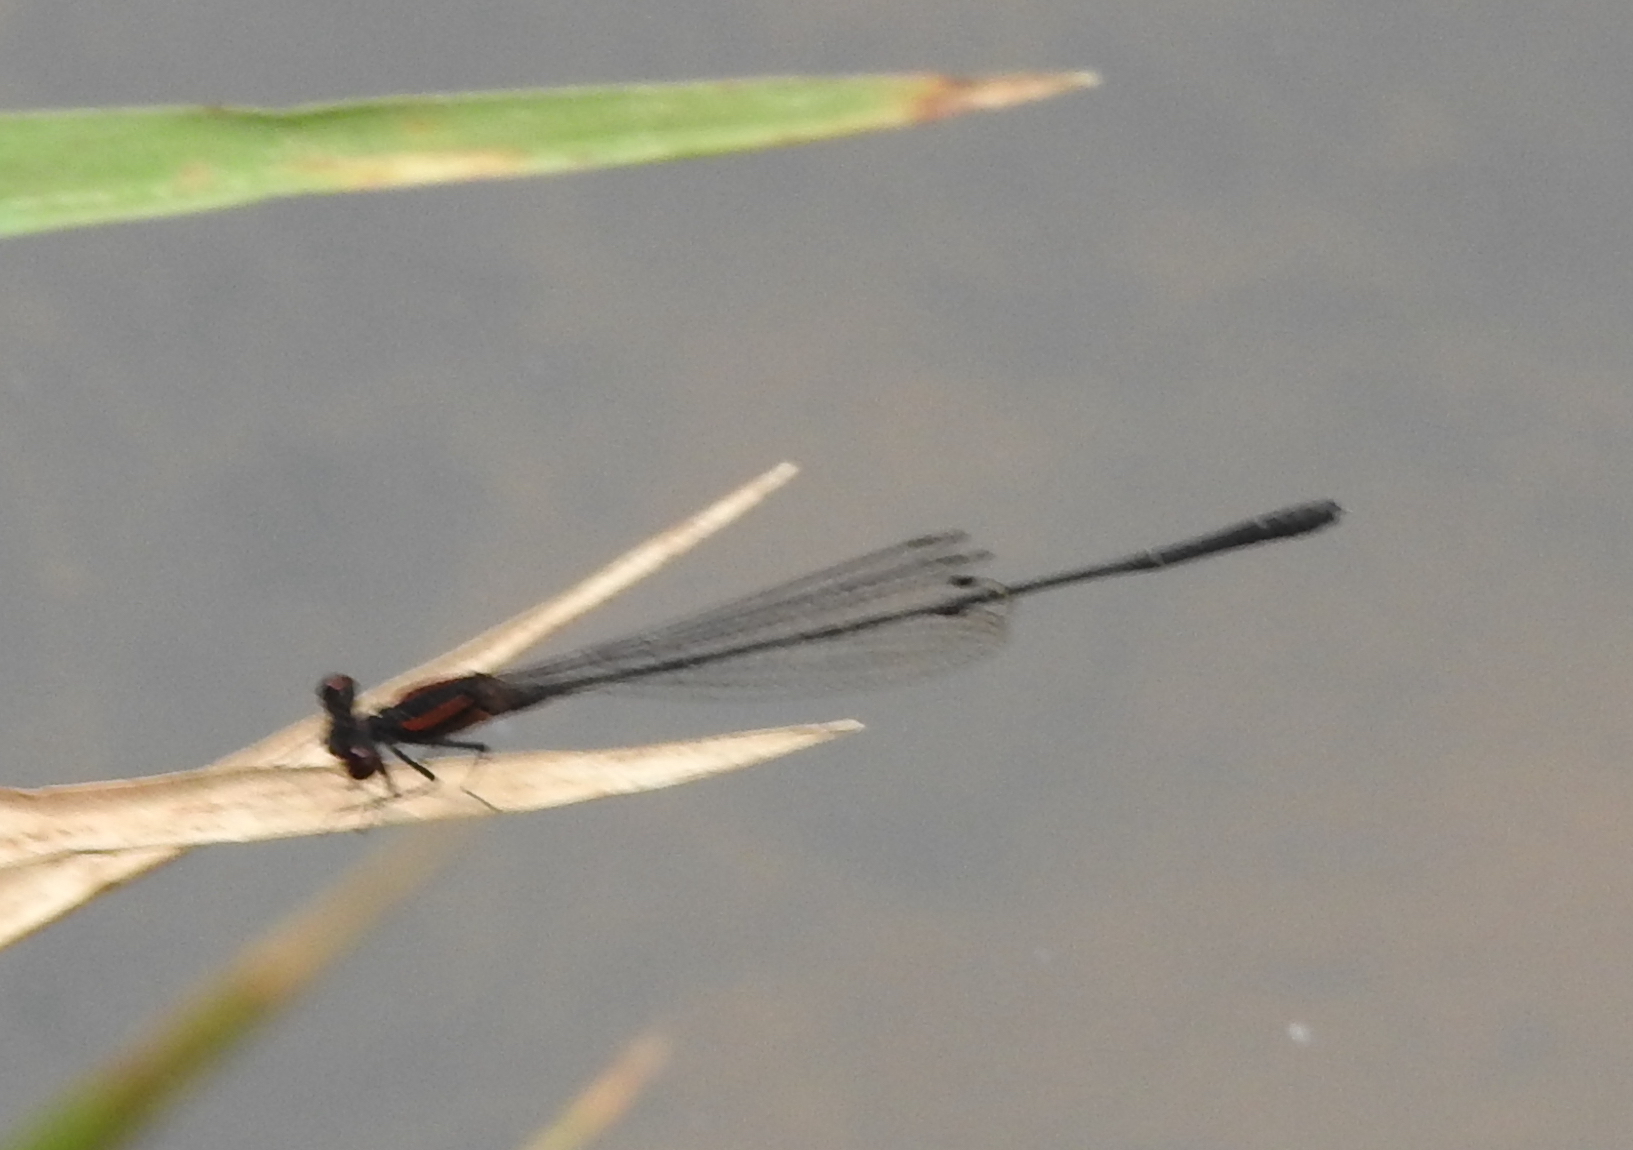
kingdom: Animalia
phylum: Arthropoda
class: Insecta
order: Odonata
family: Platycnemididae
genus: Prodasineura
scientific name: Prodasineura verticalis
